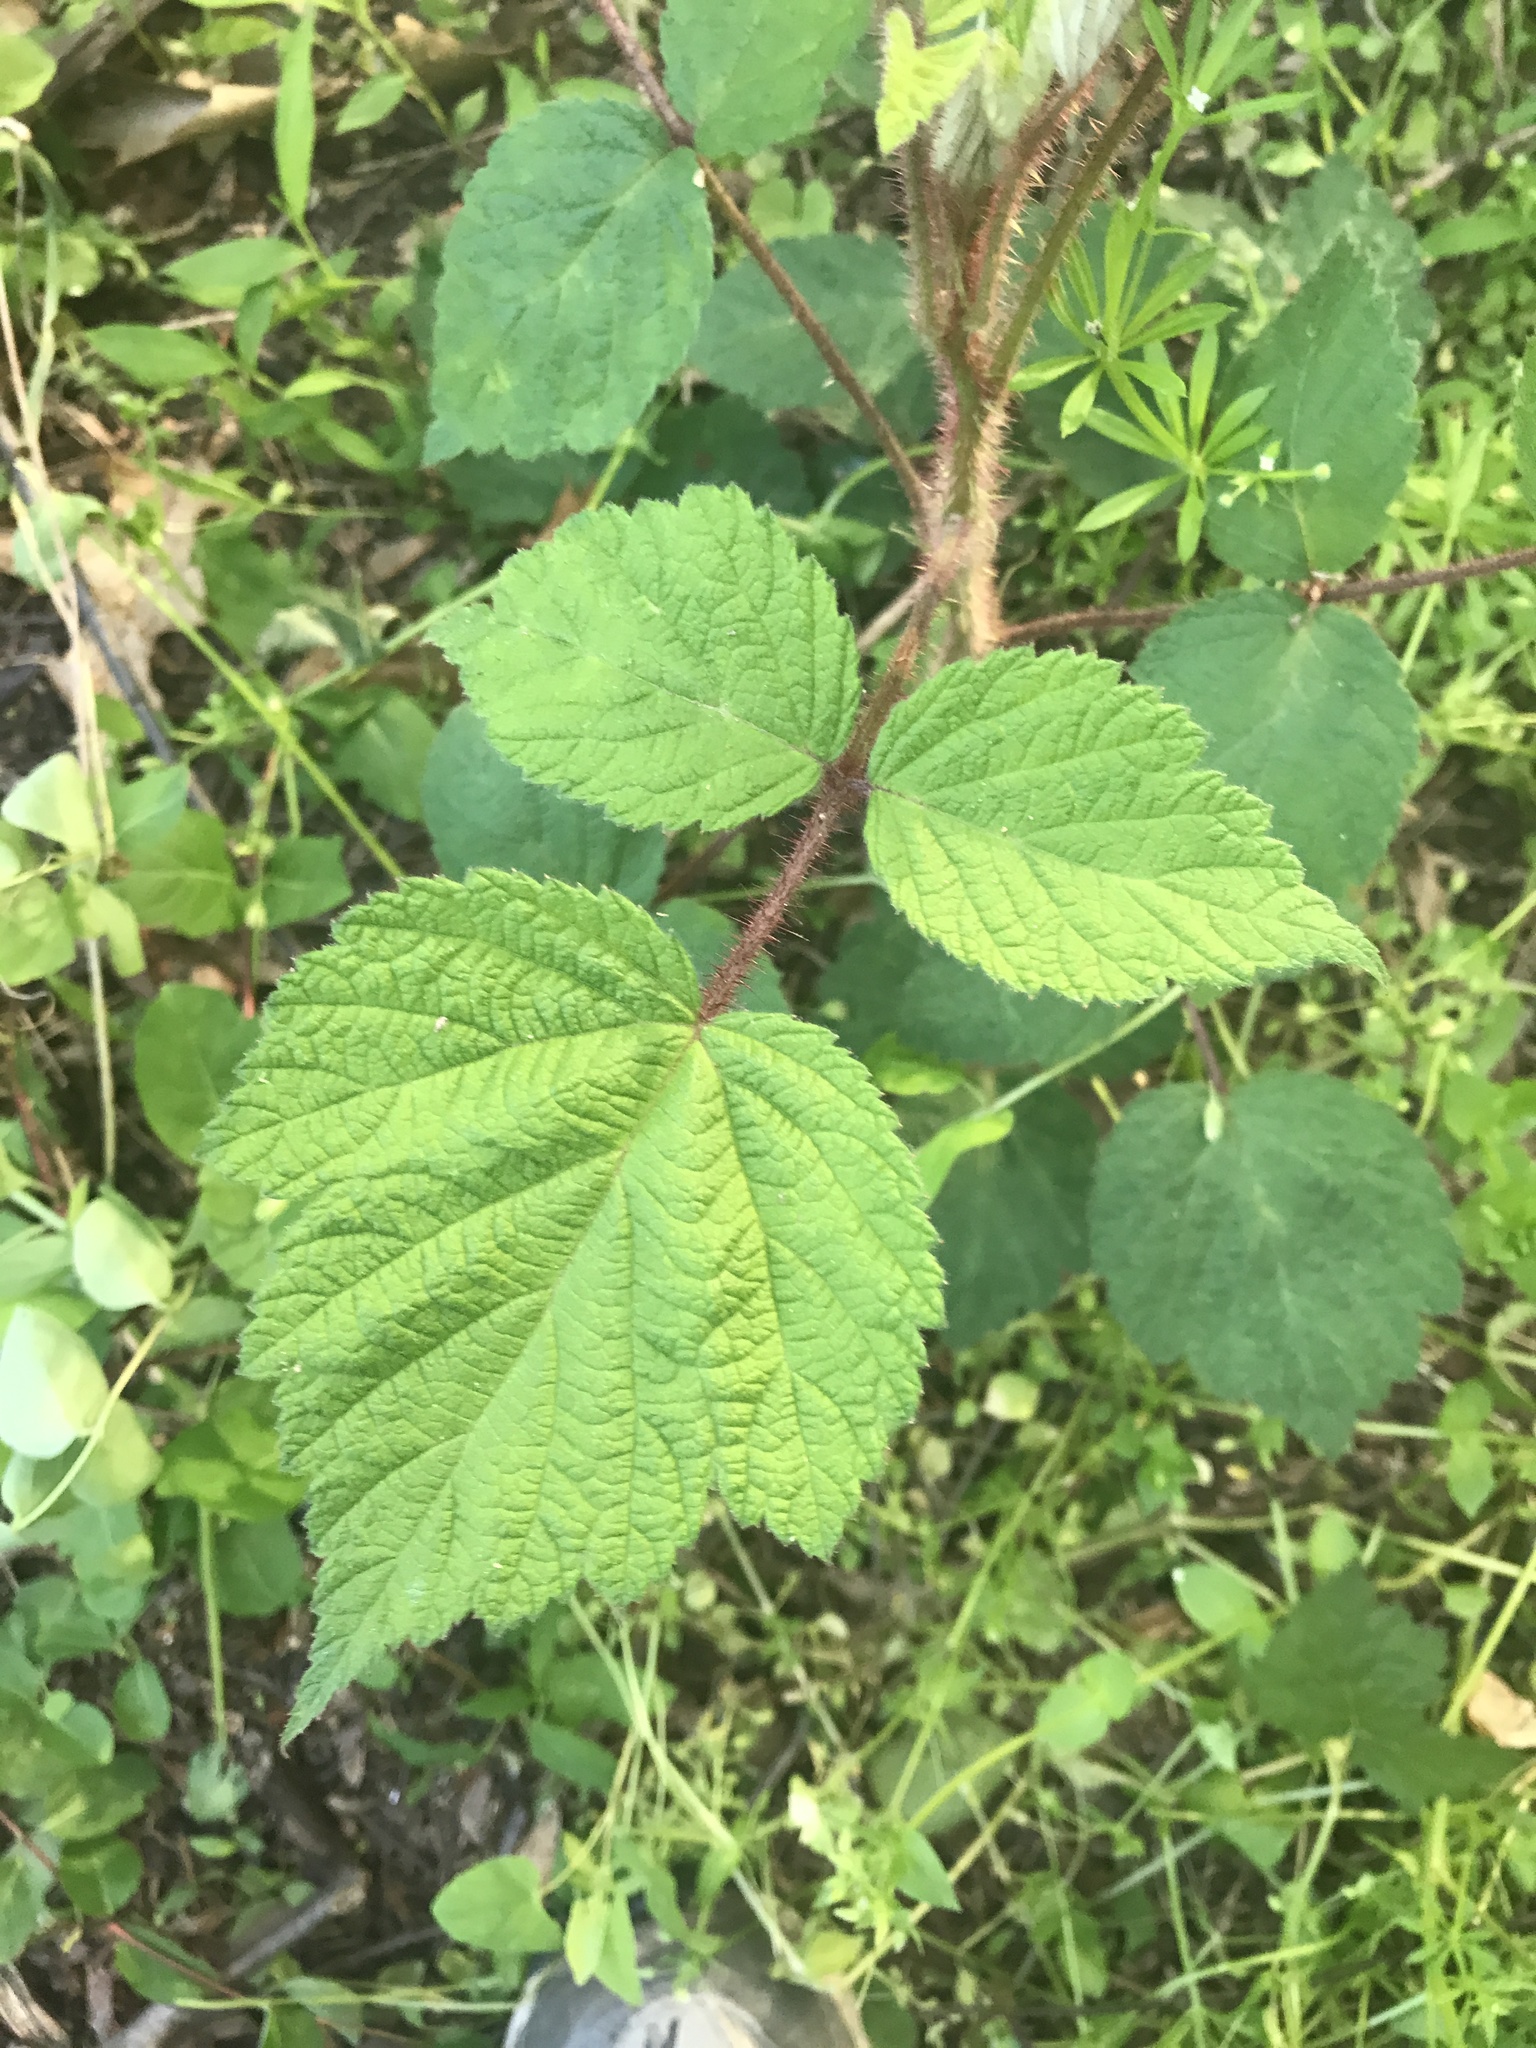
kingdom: Plantae
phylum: Tracheophyta
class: Magnoliopsida
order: Rosales
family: Rosaceae
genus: Rubus
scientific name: Rubus phoenicolasius
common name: Japanese wineberry
